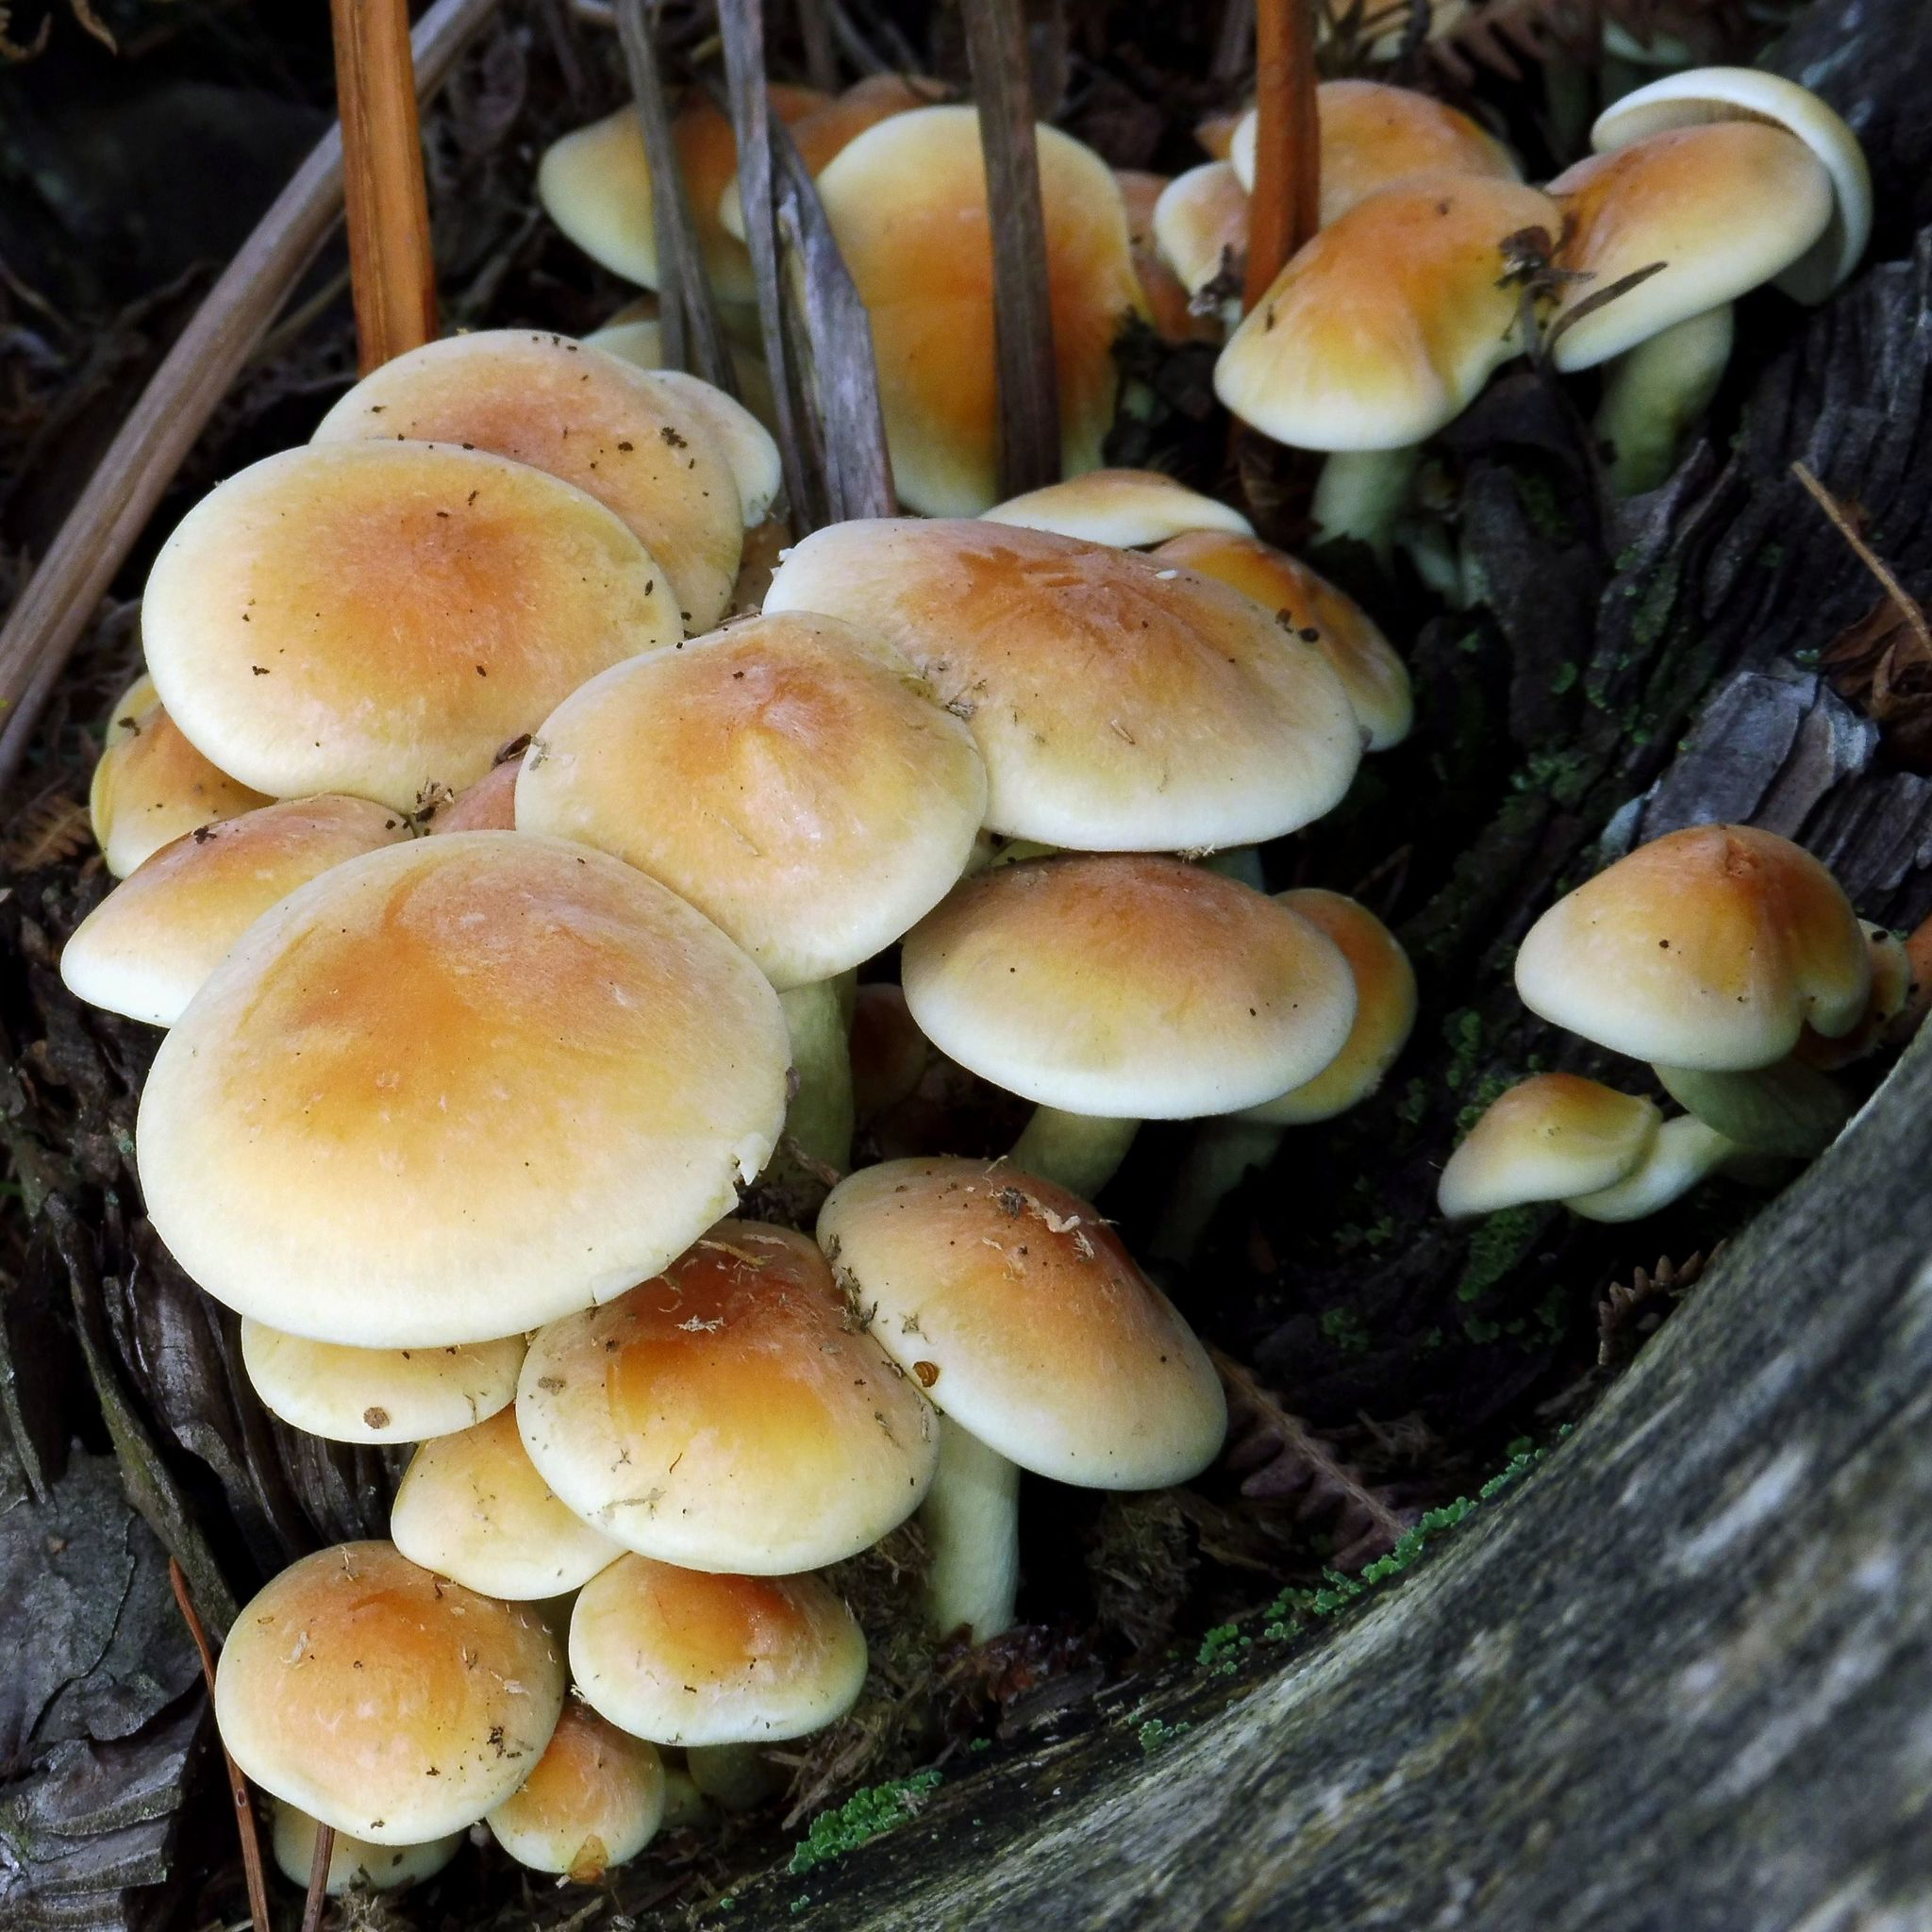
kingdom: Fungi
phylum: Basidiomycota
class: Agaricomycetes
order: Agaricales
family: Strophariaceae
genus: Hypholoma
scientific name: Hypholoma fasciculare
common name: Sulphur tuft
